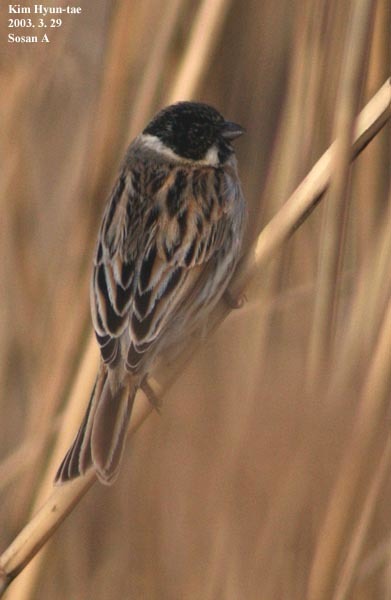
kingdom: Animalia
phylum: Chordata
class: Aves
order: Passeriformes
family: Emberizidae
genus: Emberiza
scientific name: Emberiza schoeniclus
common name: Reed bunting
